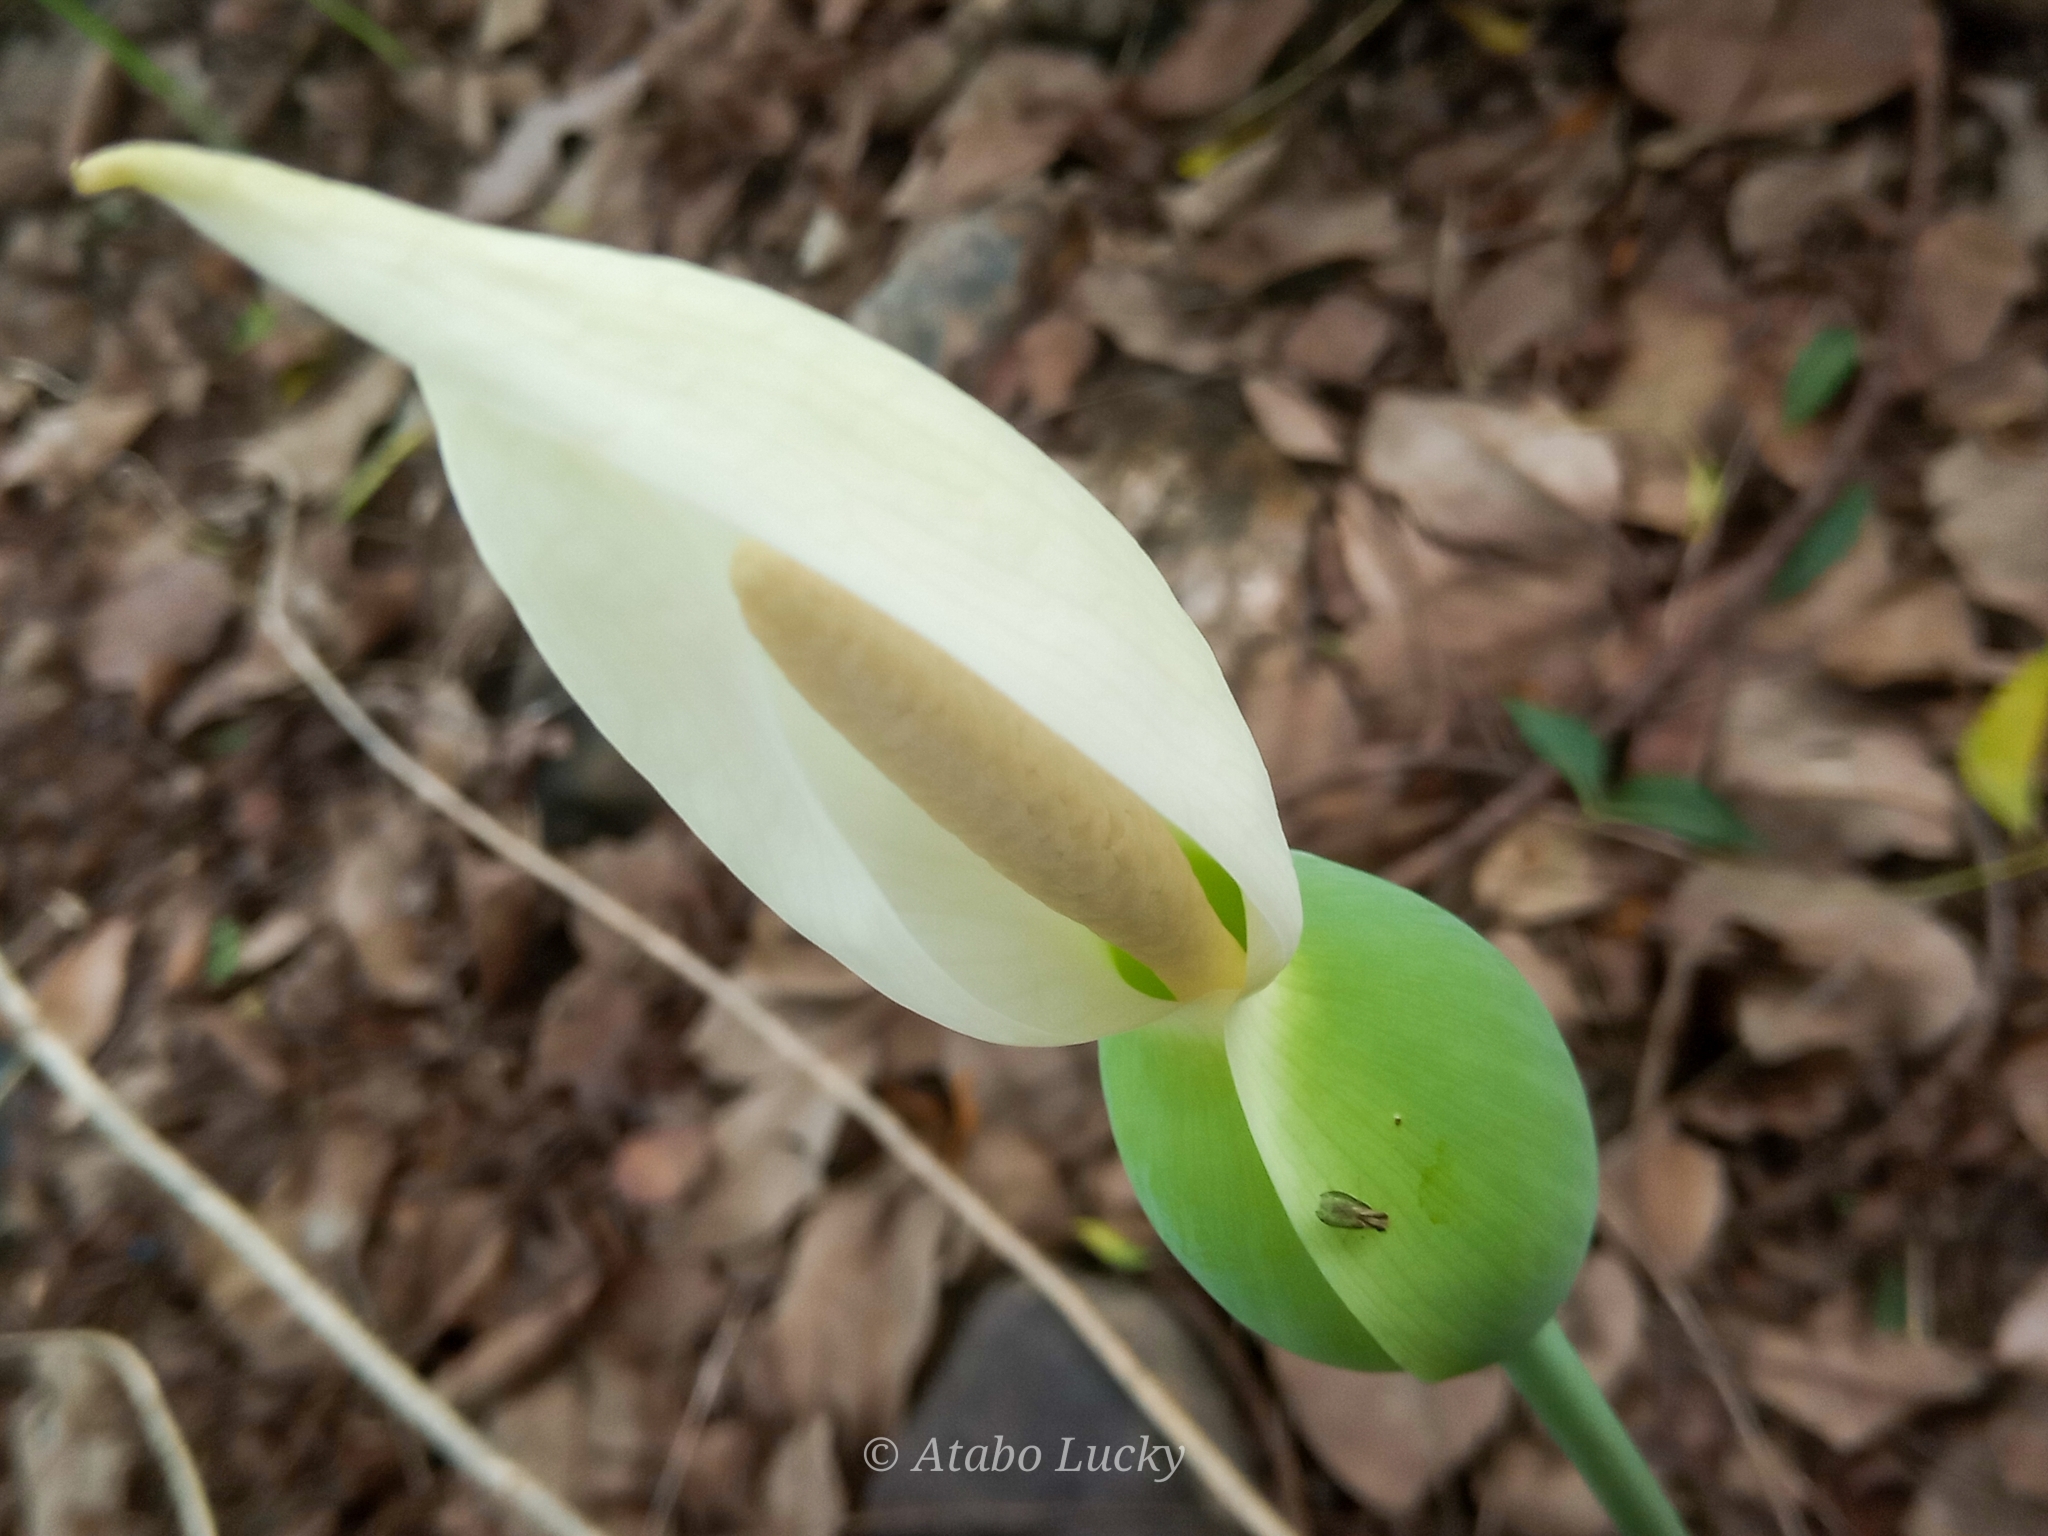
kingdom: Plantae
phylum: Tracheophyta
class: Liliopsida
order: Alismatales
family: Araceae
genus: Caladium
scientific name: Caladium bicolor
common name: Artist's pallet
